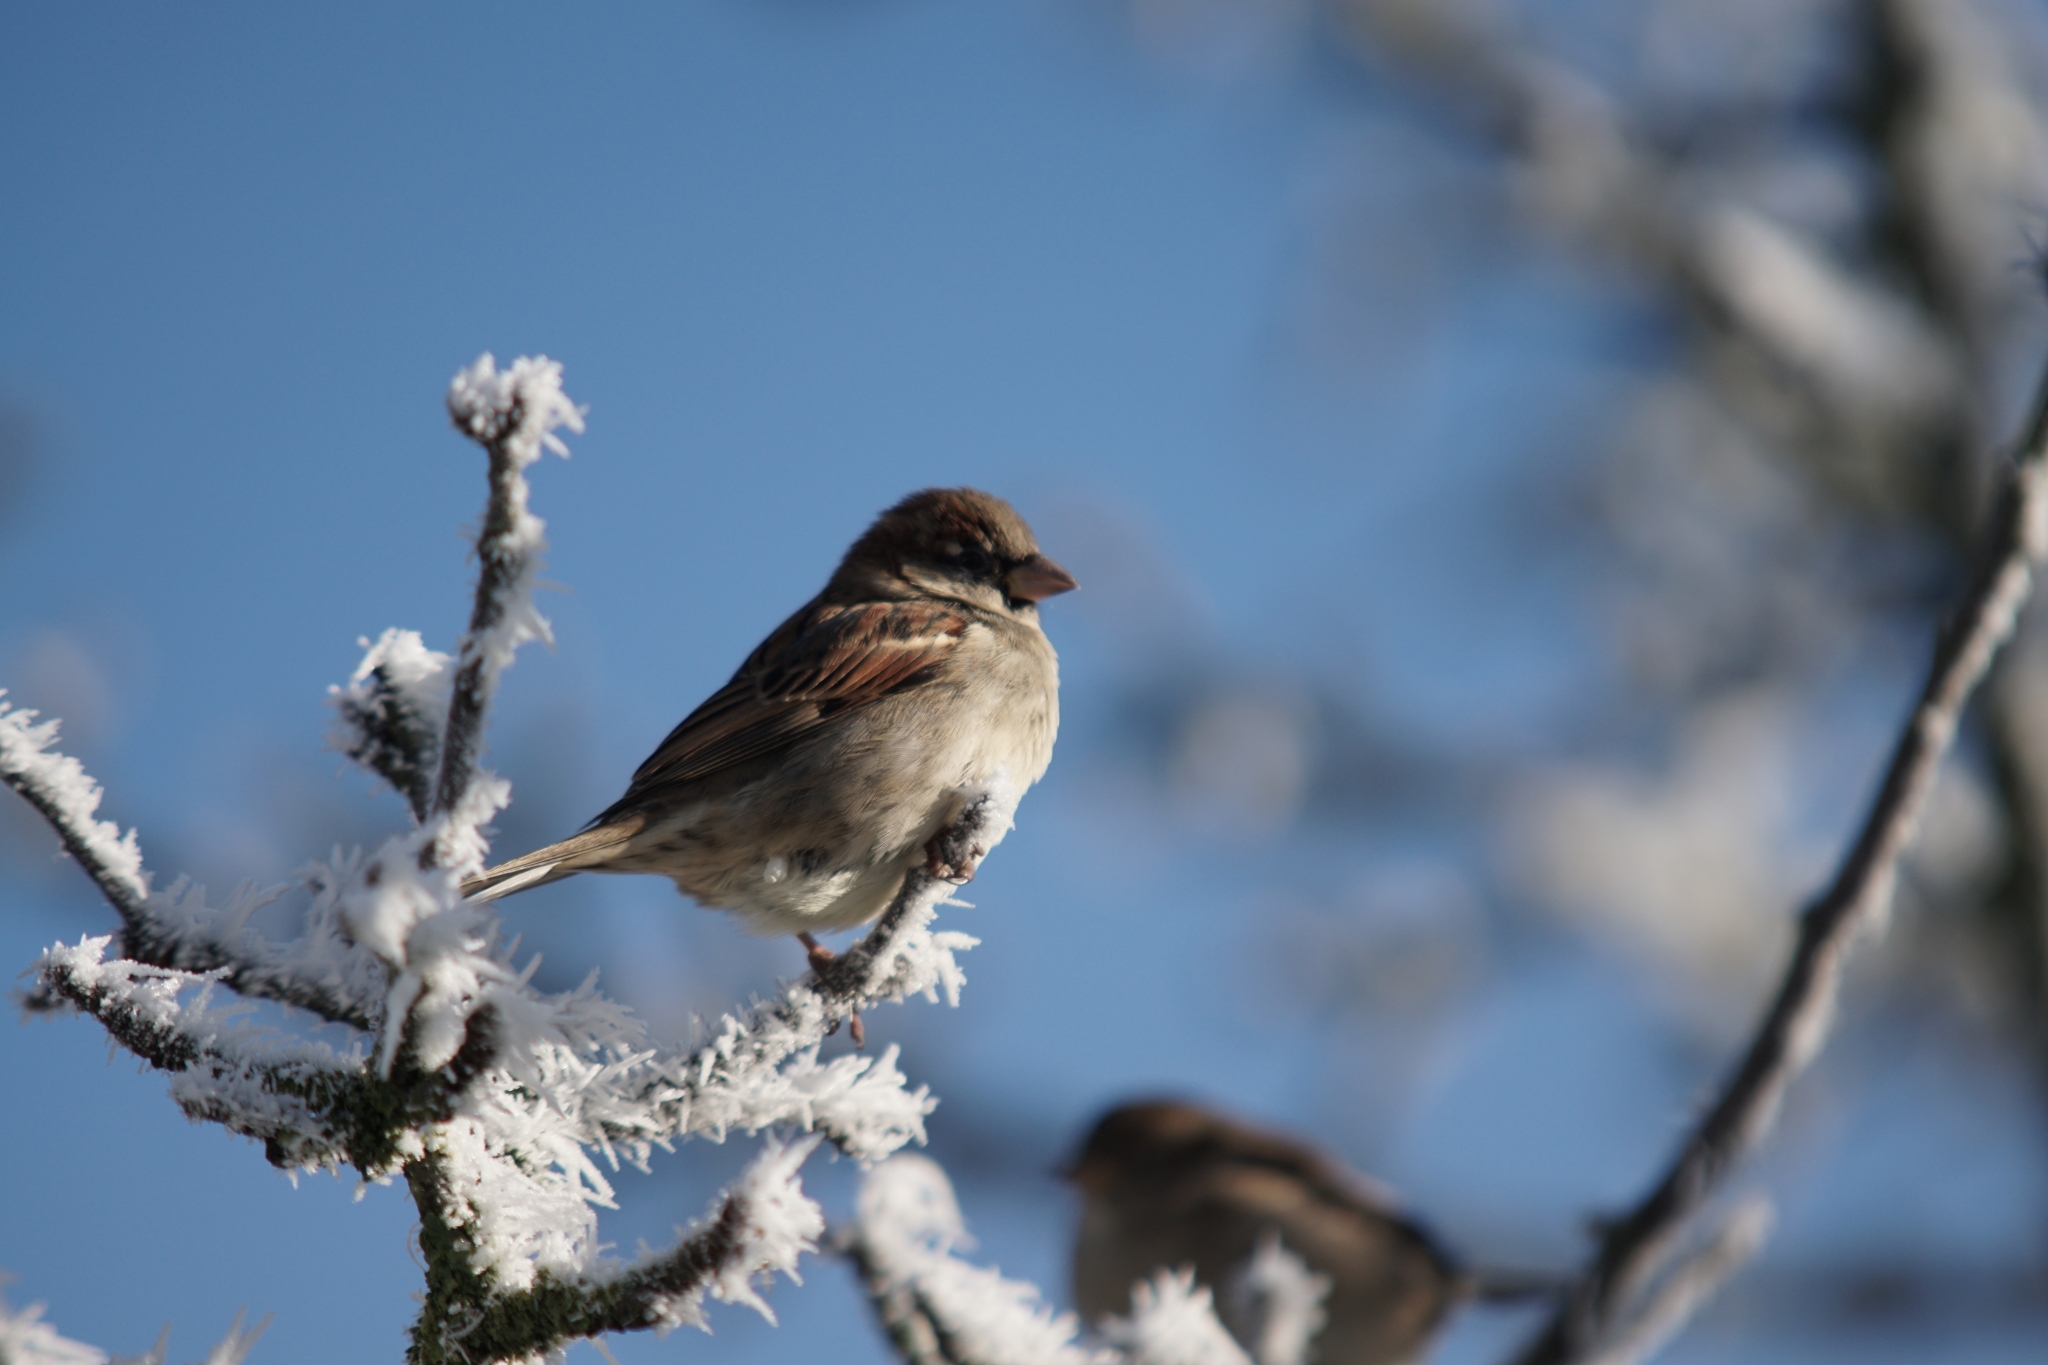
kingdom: Animalia
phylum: Chordata
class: Aves
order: Passeriformes
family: Passeridae
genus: Passer
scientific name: Passer domesticus
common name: House sparrow
